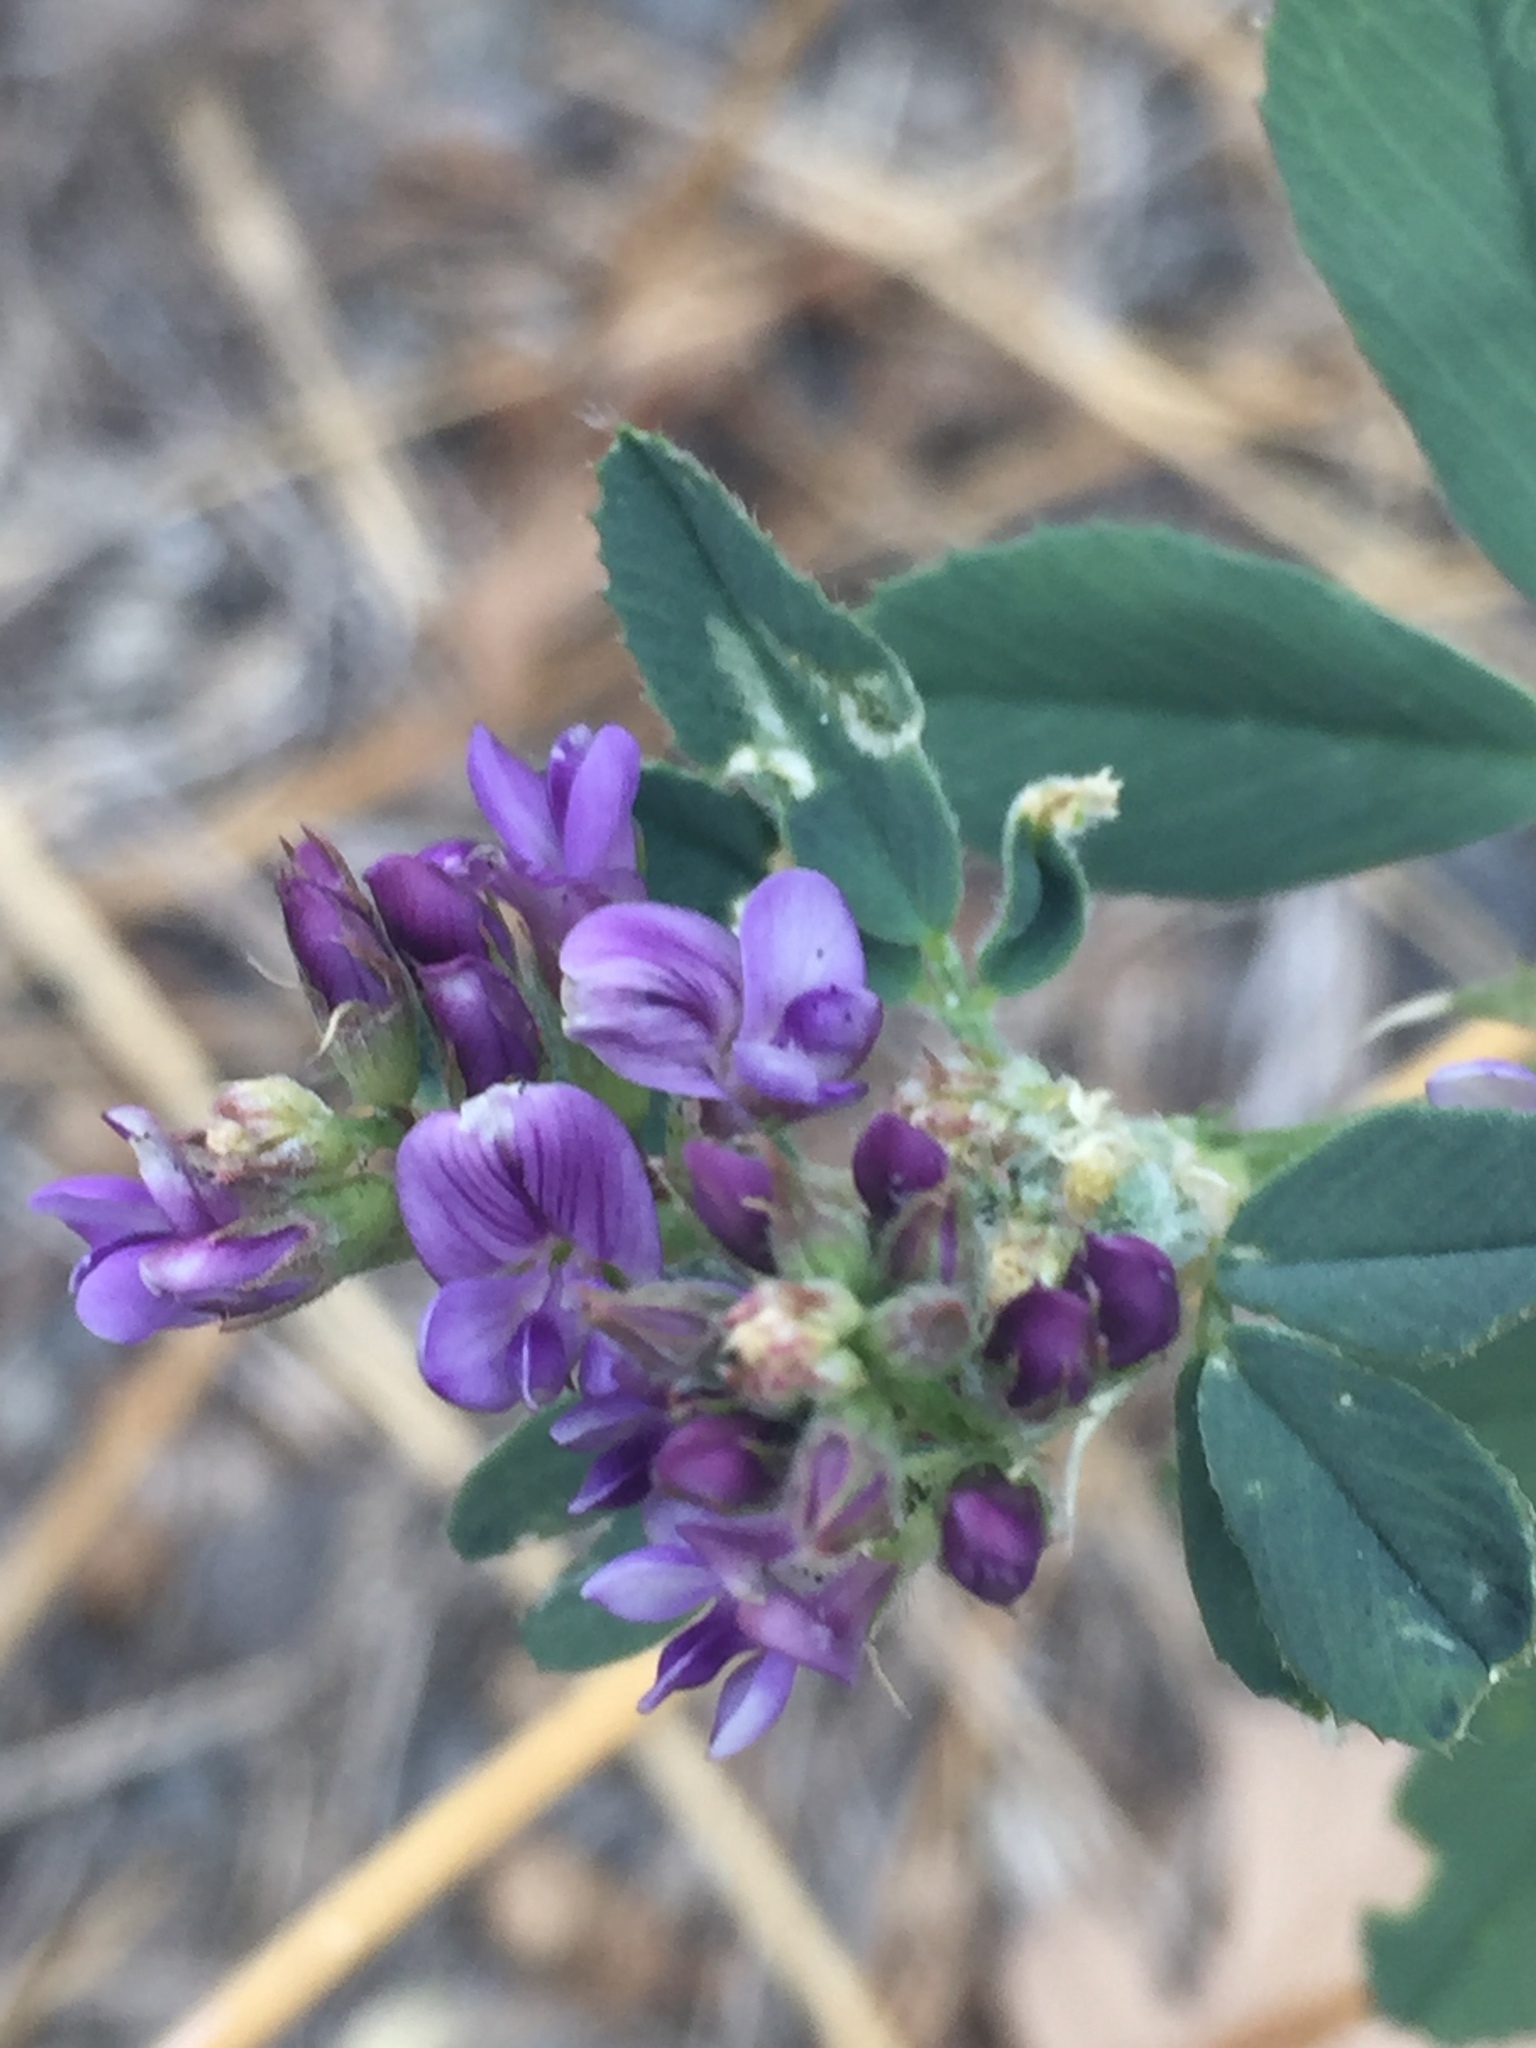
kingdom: Plantae
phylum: Tracheophyta
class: Magnoliopsida
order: Fabales
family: Fabaceae
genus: Medicago
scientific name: Medicago sativa
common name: Alfalfa
